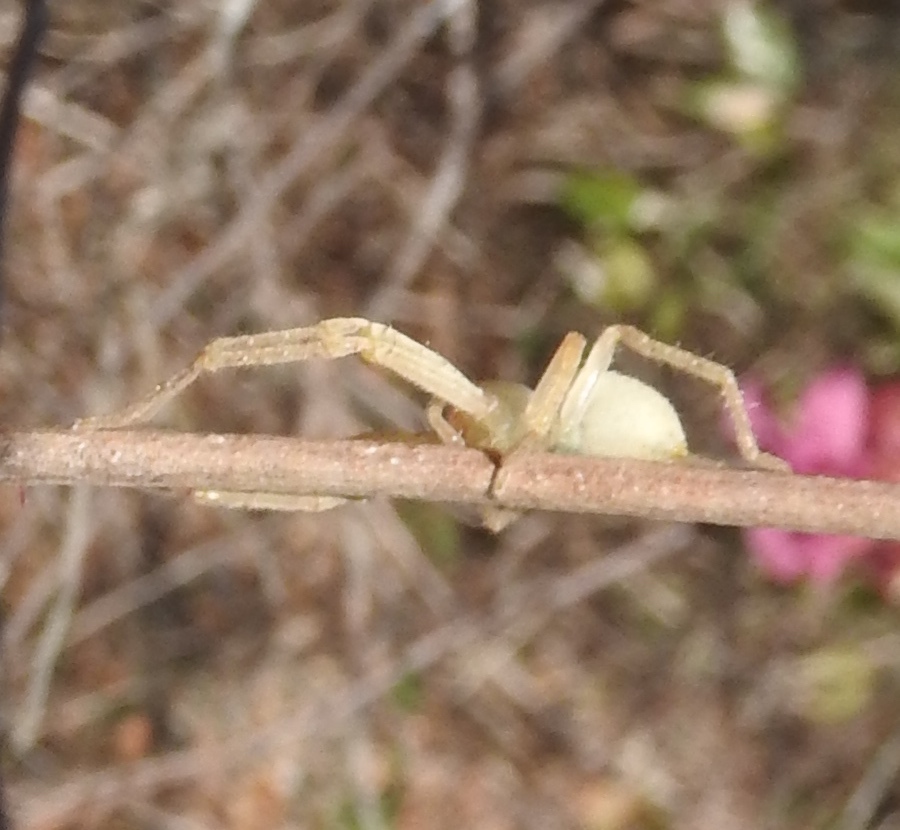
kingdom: Animalia
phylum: Arthropoda
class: Arachnida
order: Araneae
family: Sparassidae
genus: Curicaberis
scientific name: Curicaberis culiacan
